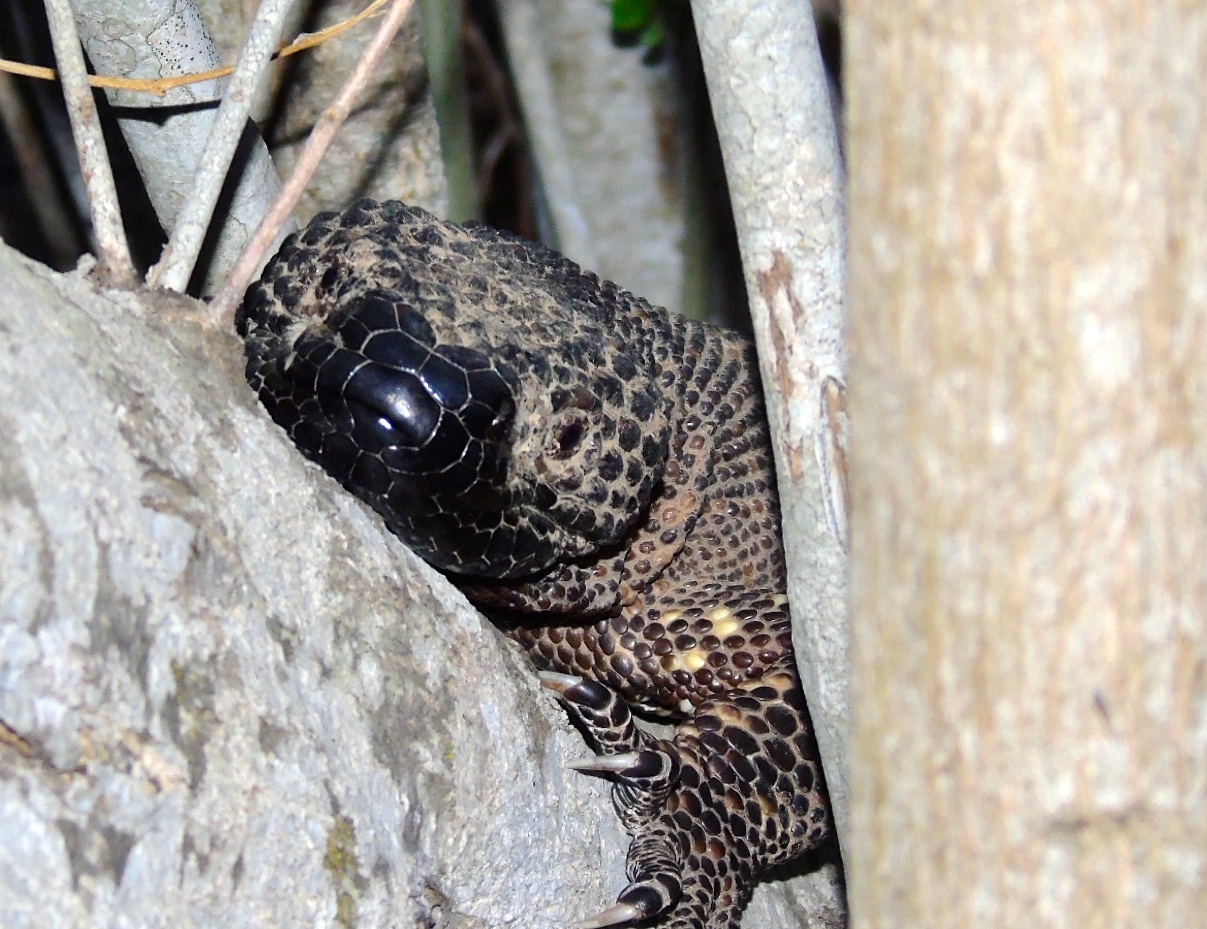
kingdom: Animalia
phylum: Chordata
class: Squamata
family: Helodermatidae
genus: Heloderma
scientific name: Heloderma horridum
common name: Mexican beaded lizard
